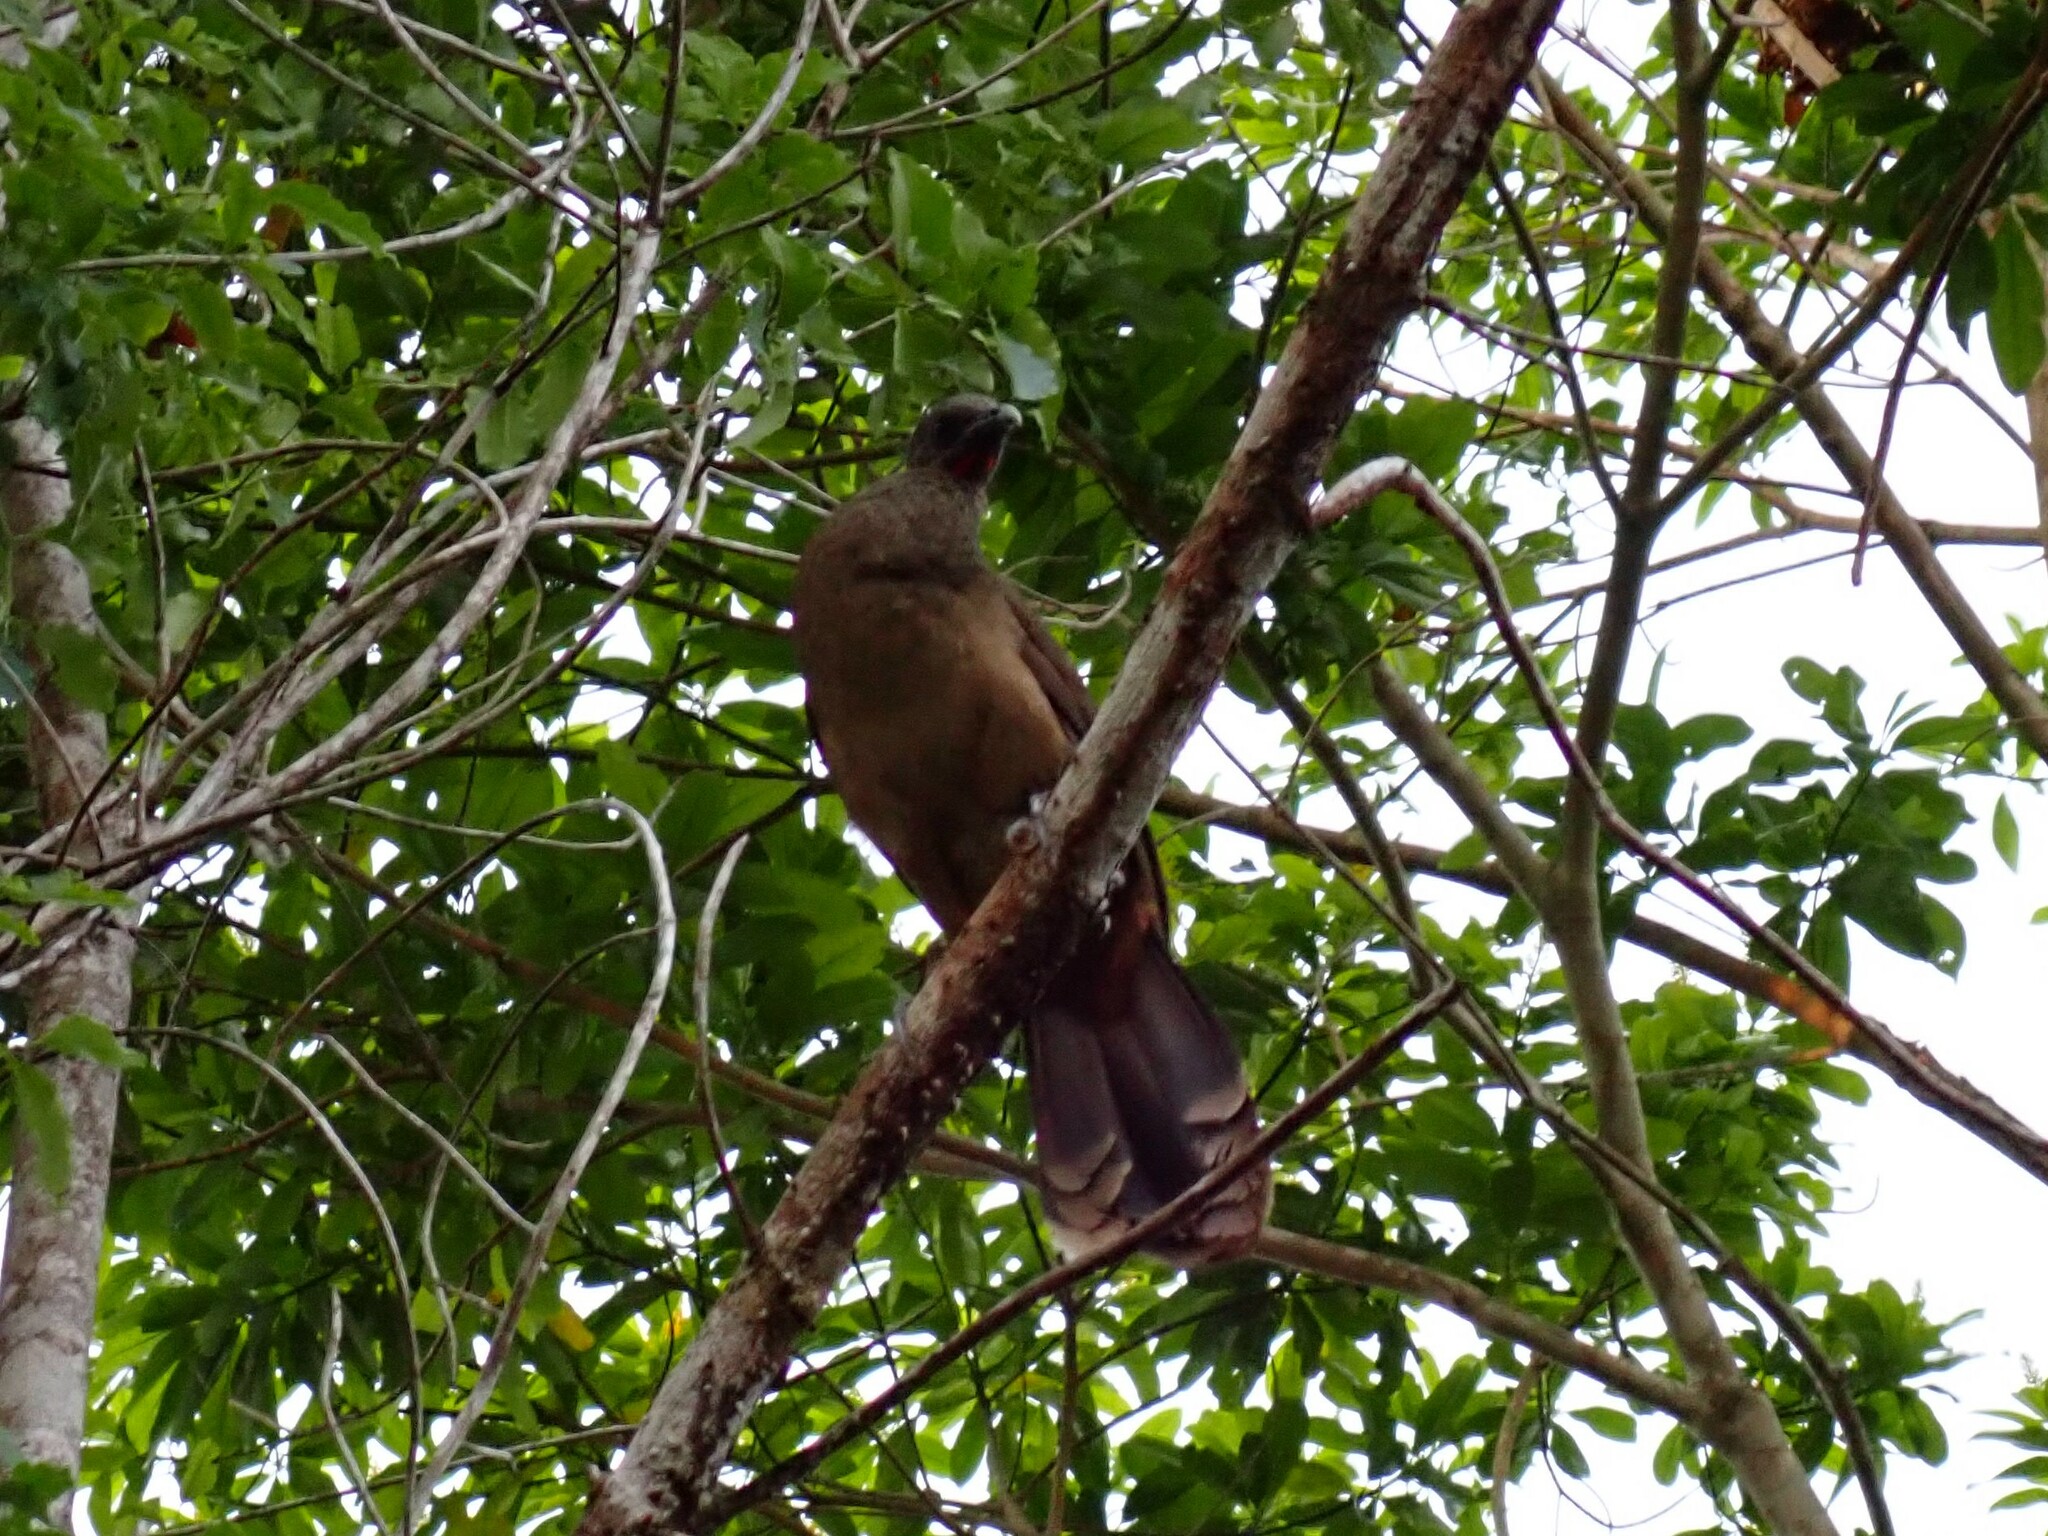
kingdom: Animalia
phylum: Chordata
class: Aves
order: Galliformes
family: Cracidae
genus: Ortalis
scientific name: Ortalis vetula
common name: Plain chachalaca
